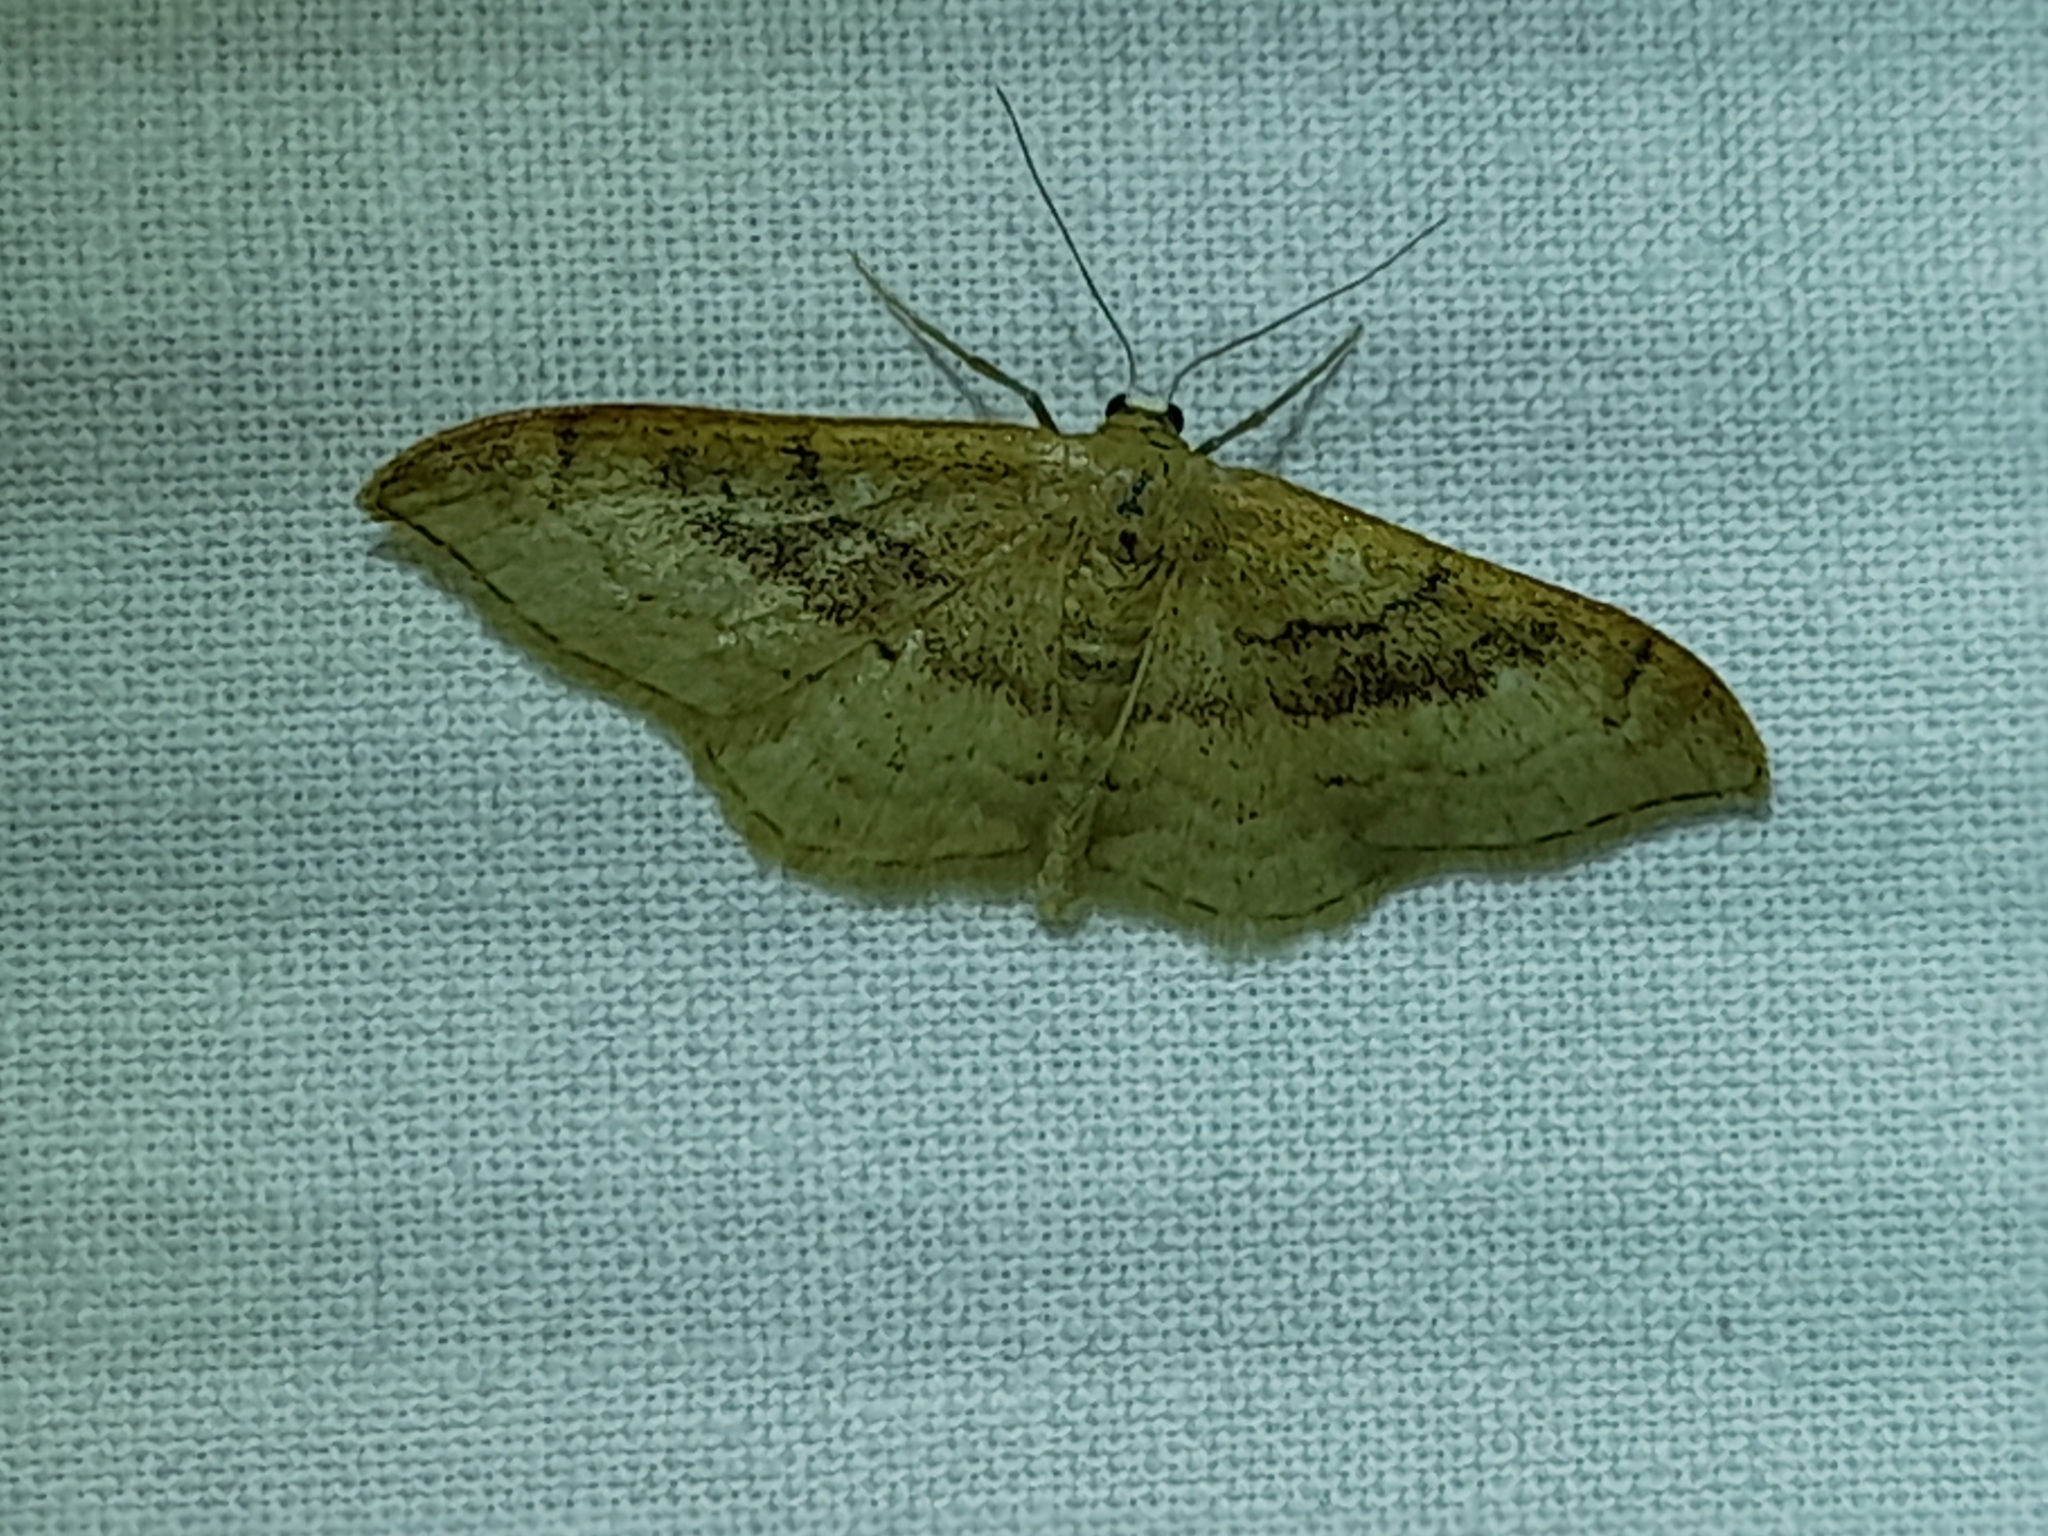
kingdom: Animalia
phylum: Arthropoda
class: Insecta
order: Lepidoptera
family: Geometridae
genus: Idaea
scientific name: Idaea degeneraria
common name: Portland ribbon wave
